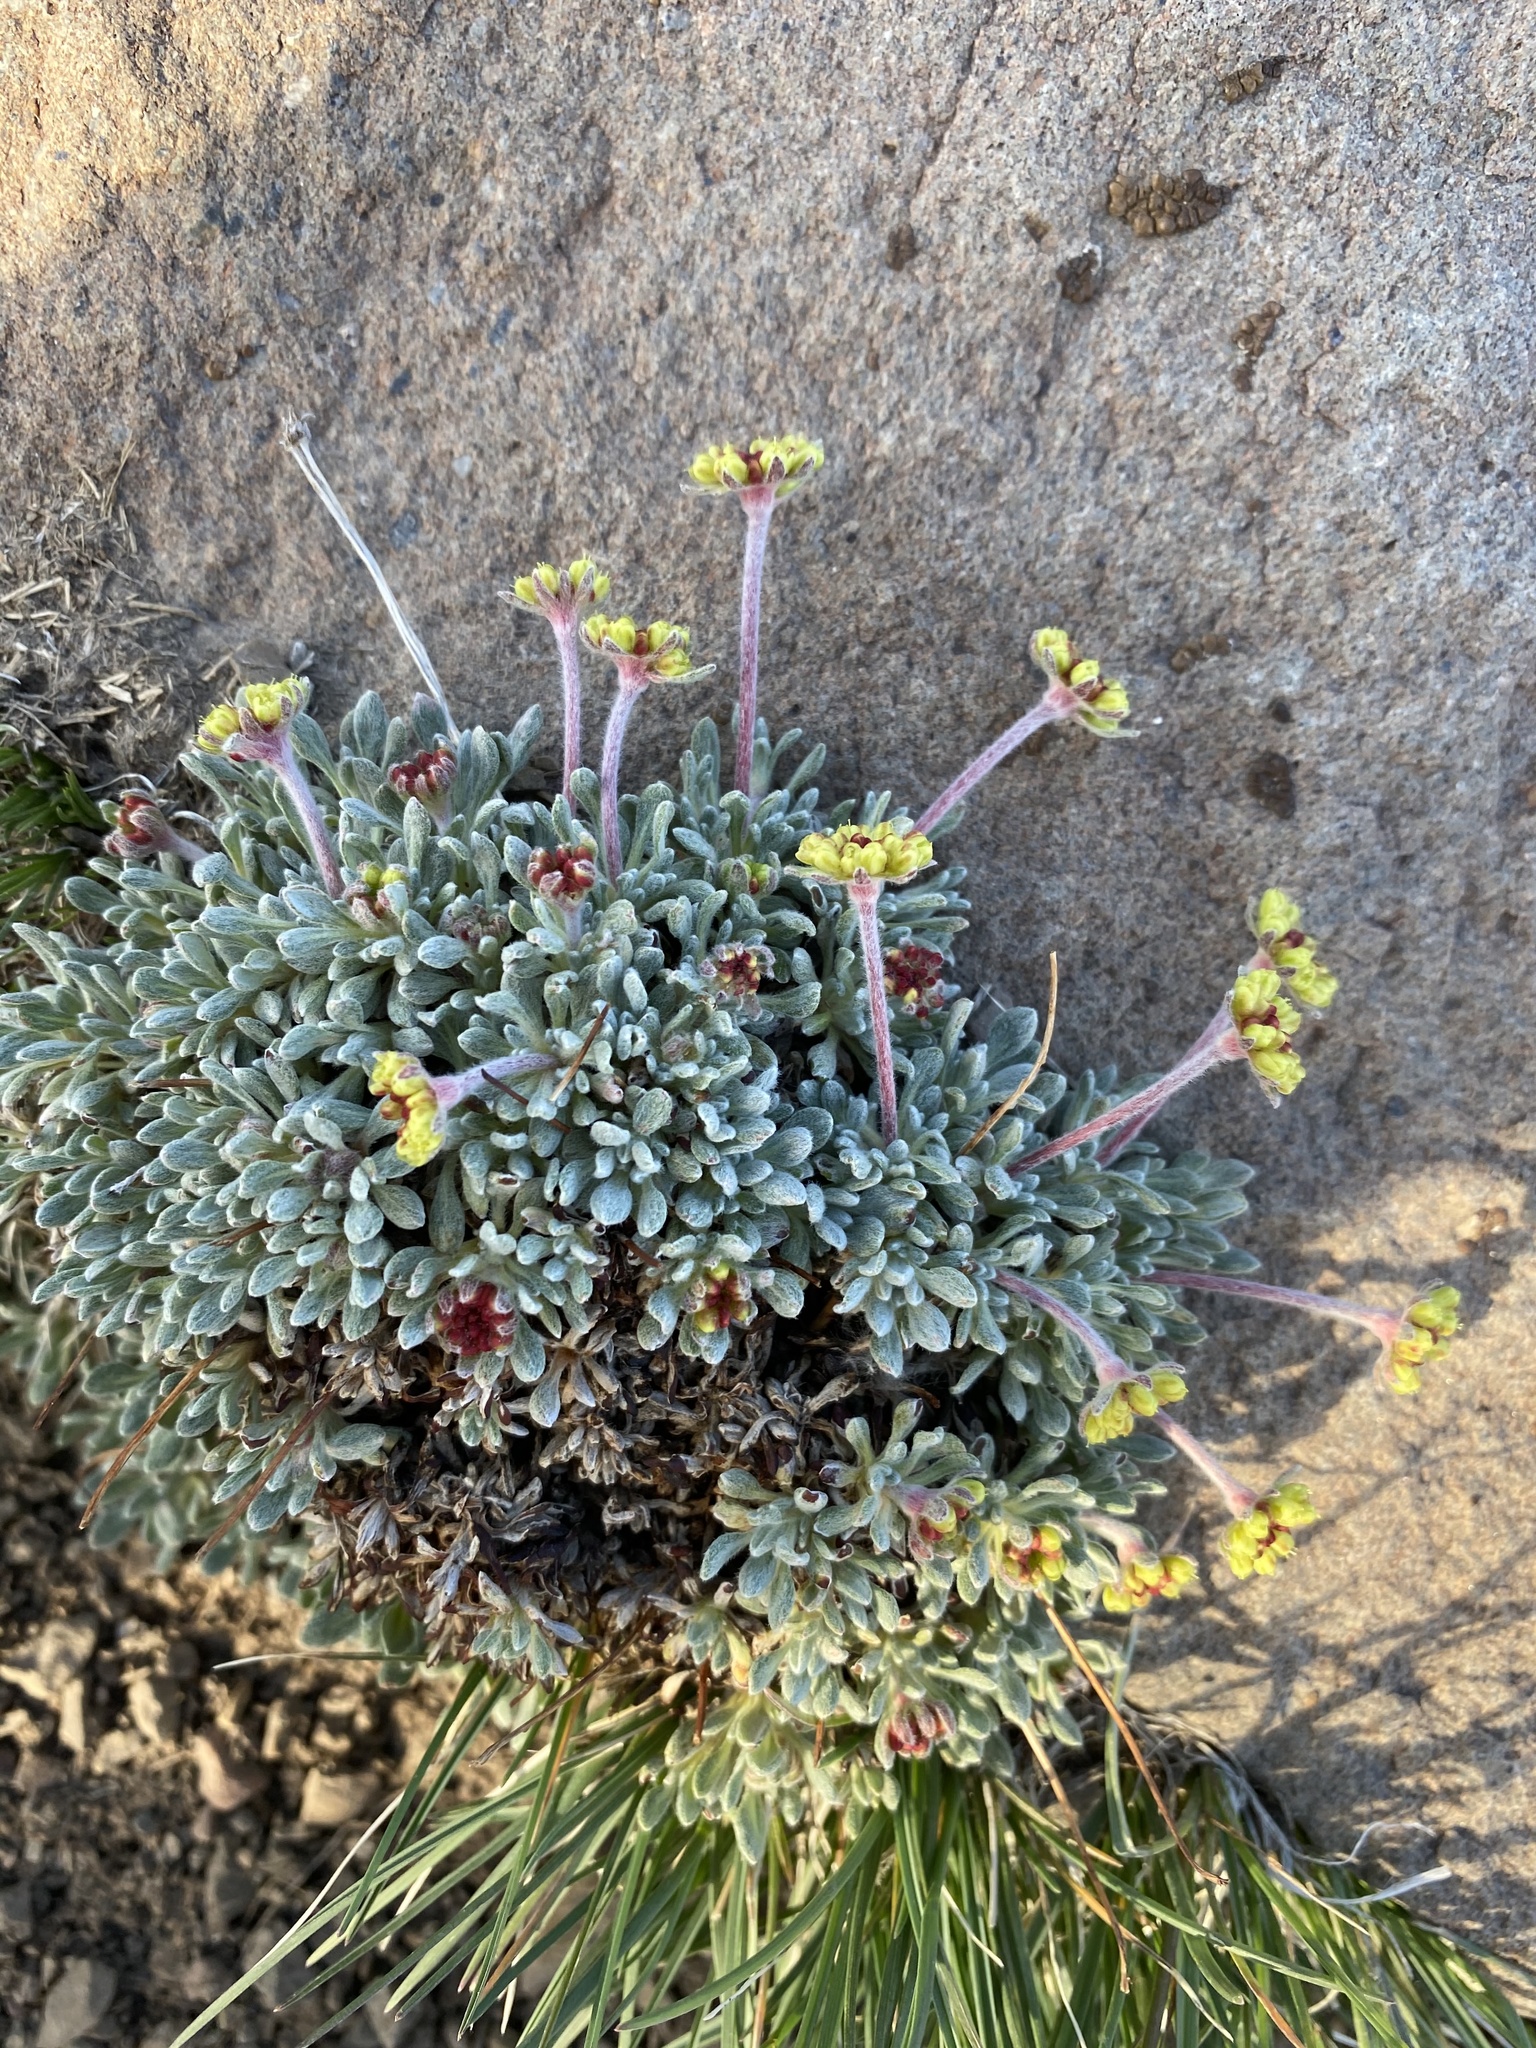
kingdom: Plantae
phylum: Tracheophyta
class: Magnoliopsida
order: Caryophyllales
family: Polygonaceae
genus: Eriogonum
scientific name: Eriogonum caespitosum
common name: Matted wild buckwheat
